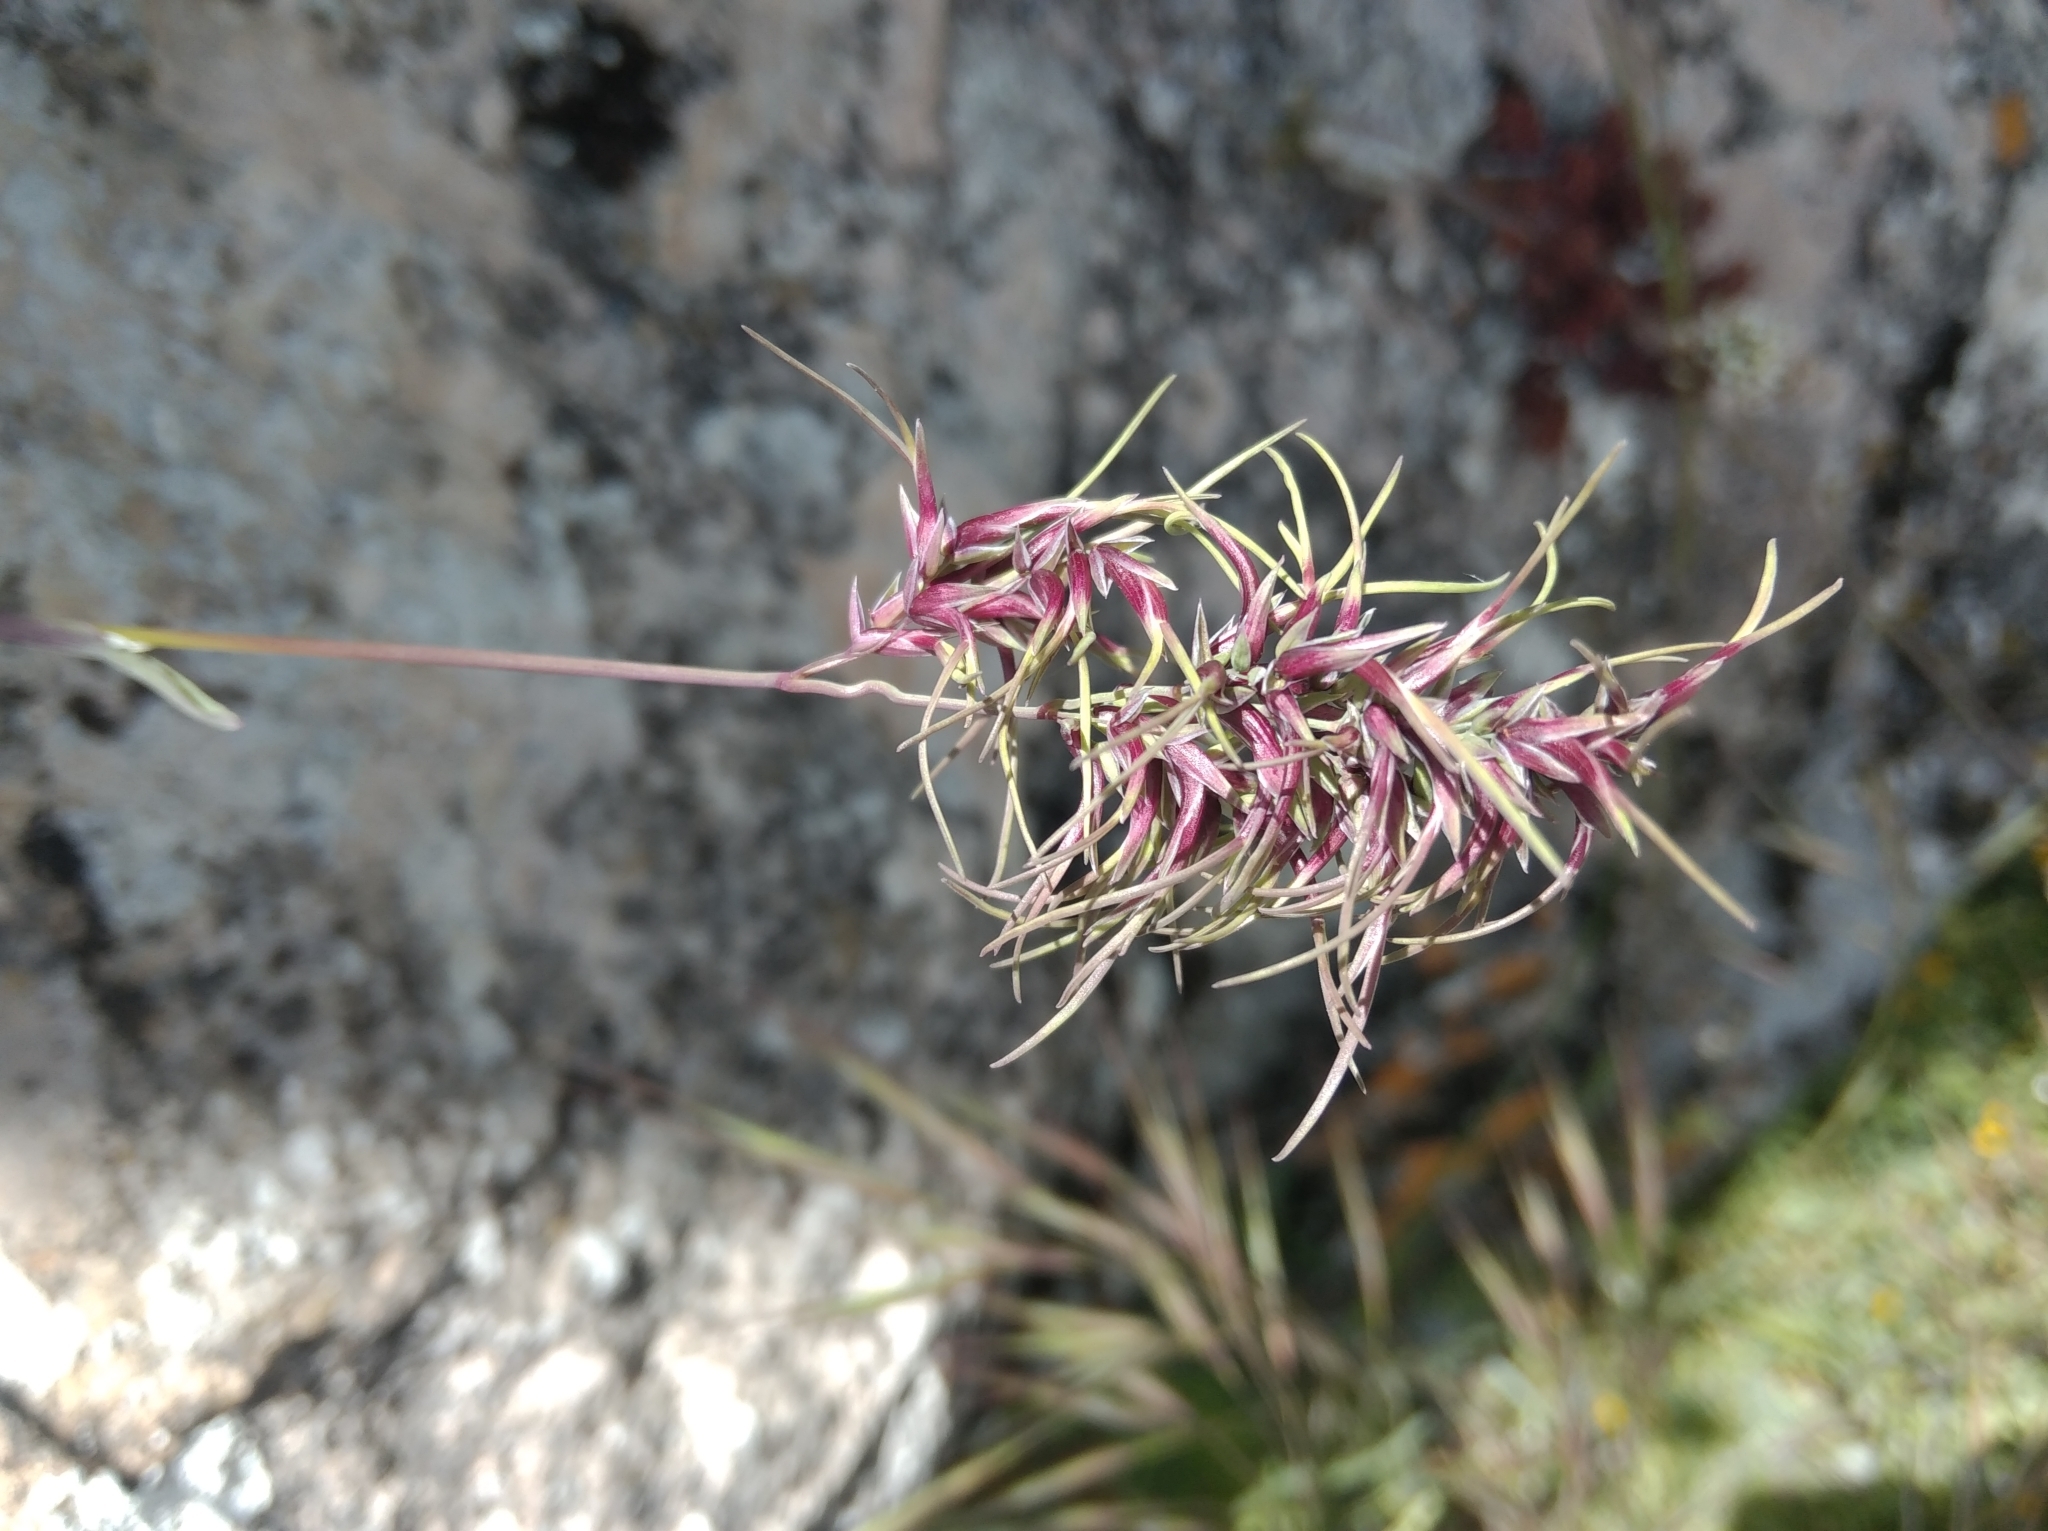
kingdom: Plantae
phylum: Tracheophyta
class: Liliopsida
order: Poales
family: Poaceae
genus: Poa
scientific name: Poa bulbosa
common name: Bulbous bluegrass
